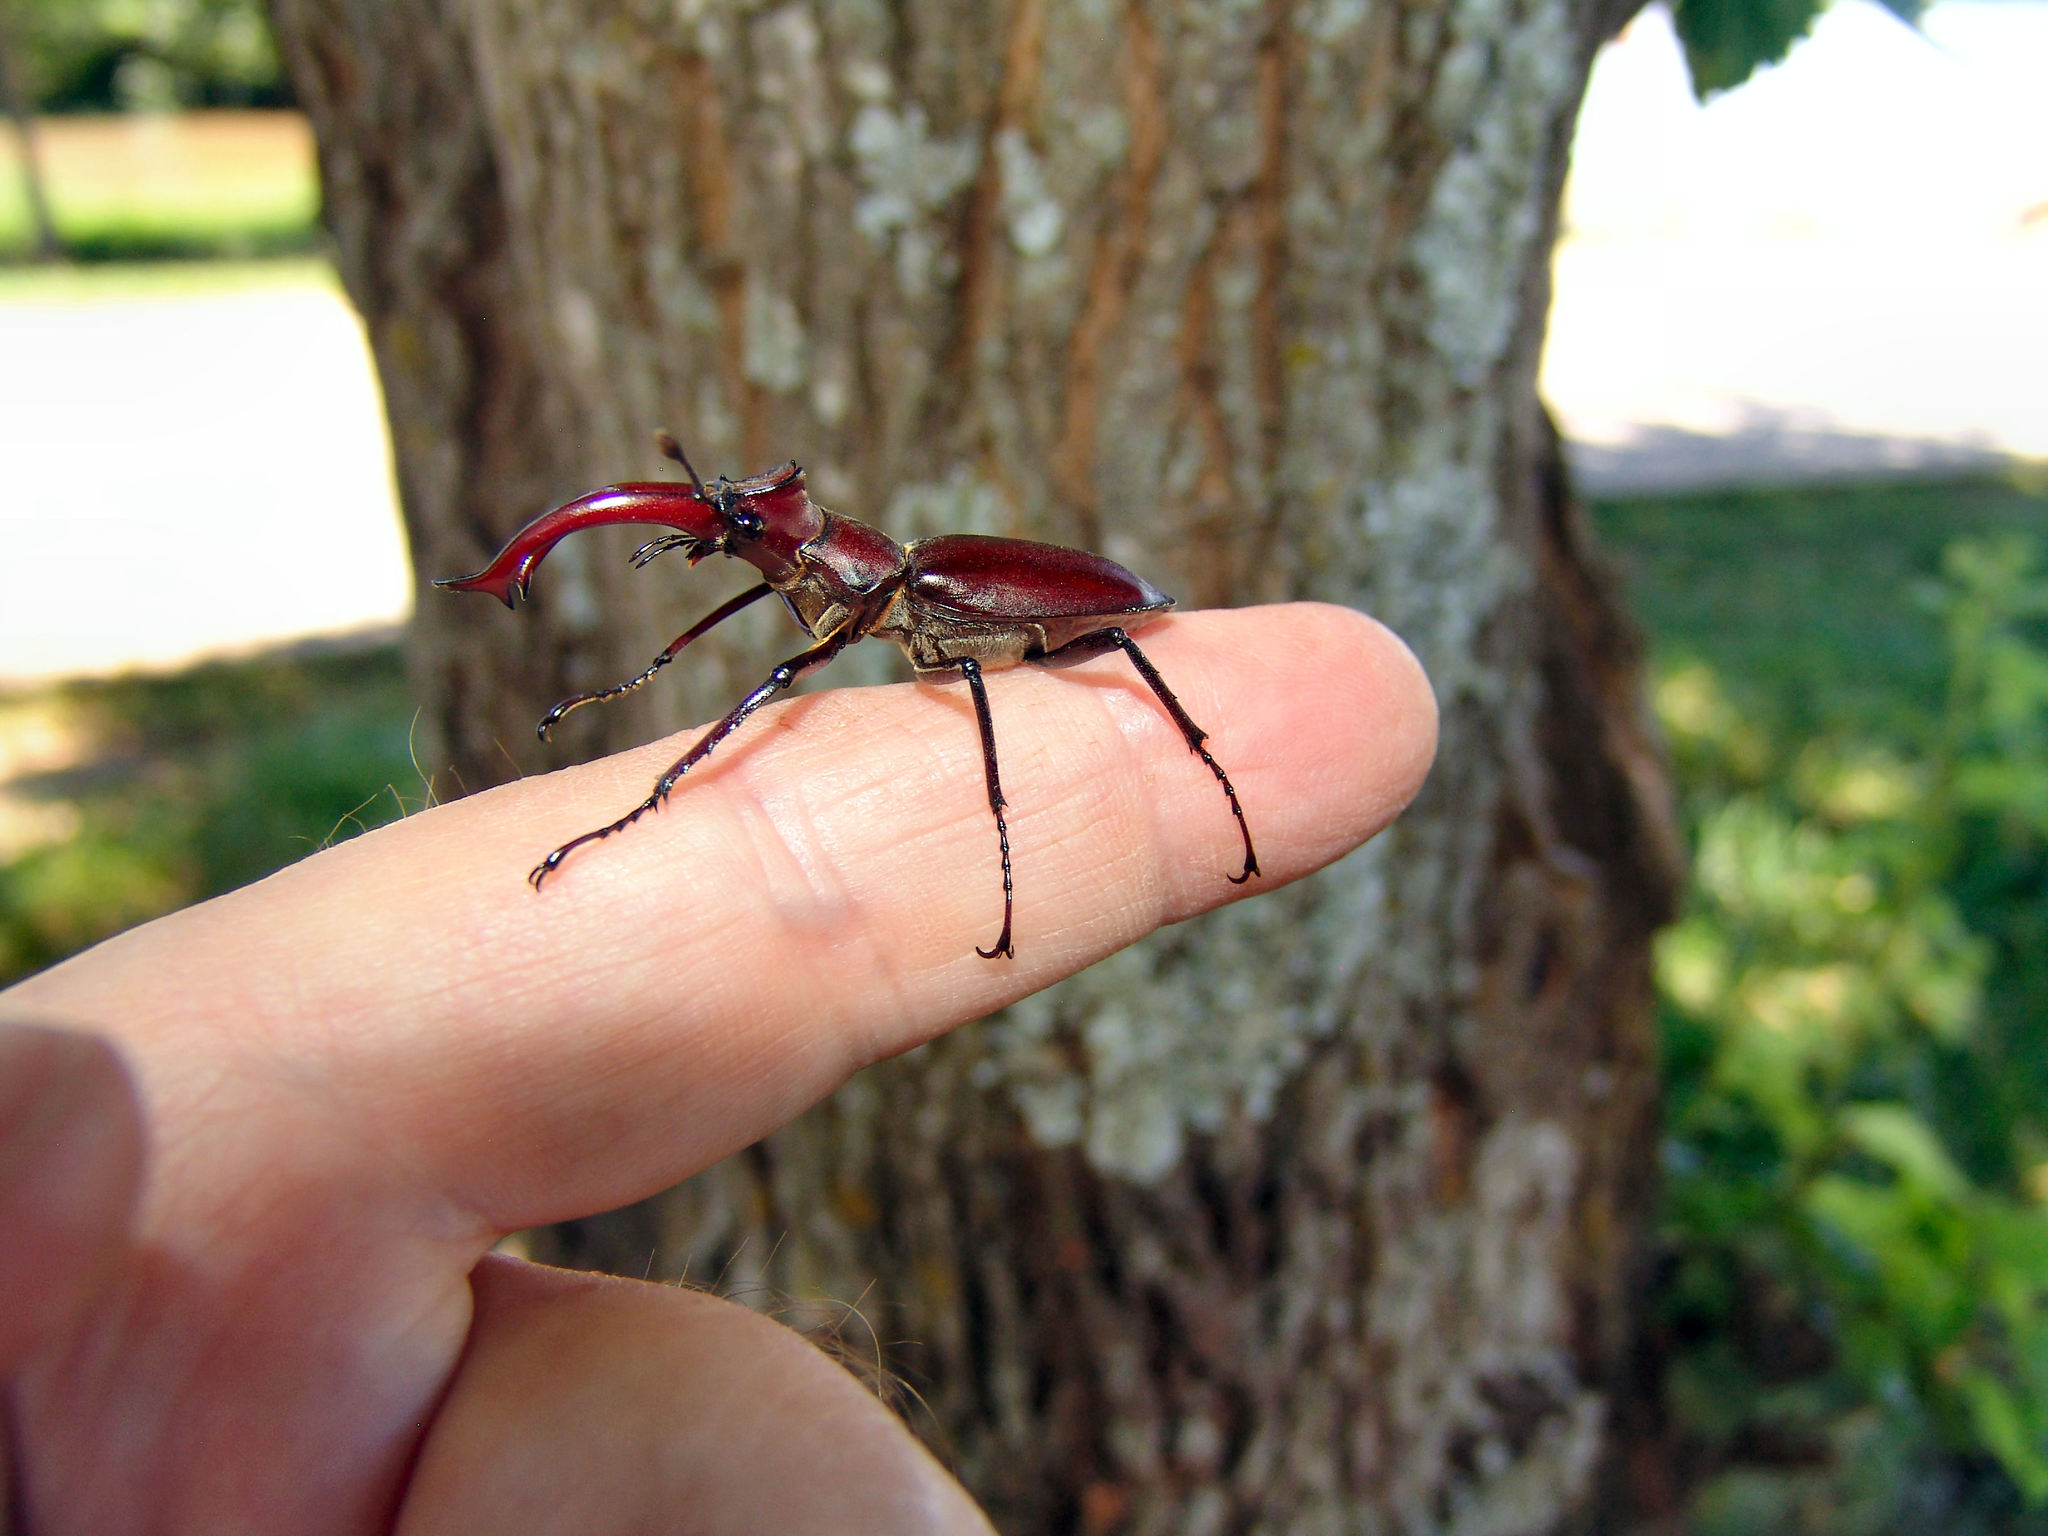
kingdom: Animalia
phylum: Arthropoda
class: Insecta
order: Coleoptera
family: Lucanidae
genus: Lucanus
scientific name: Lucanus elaphus
